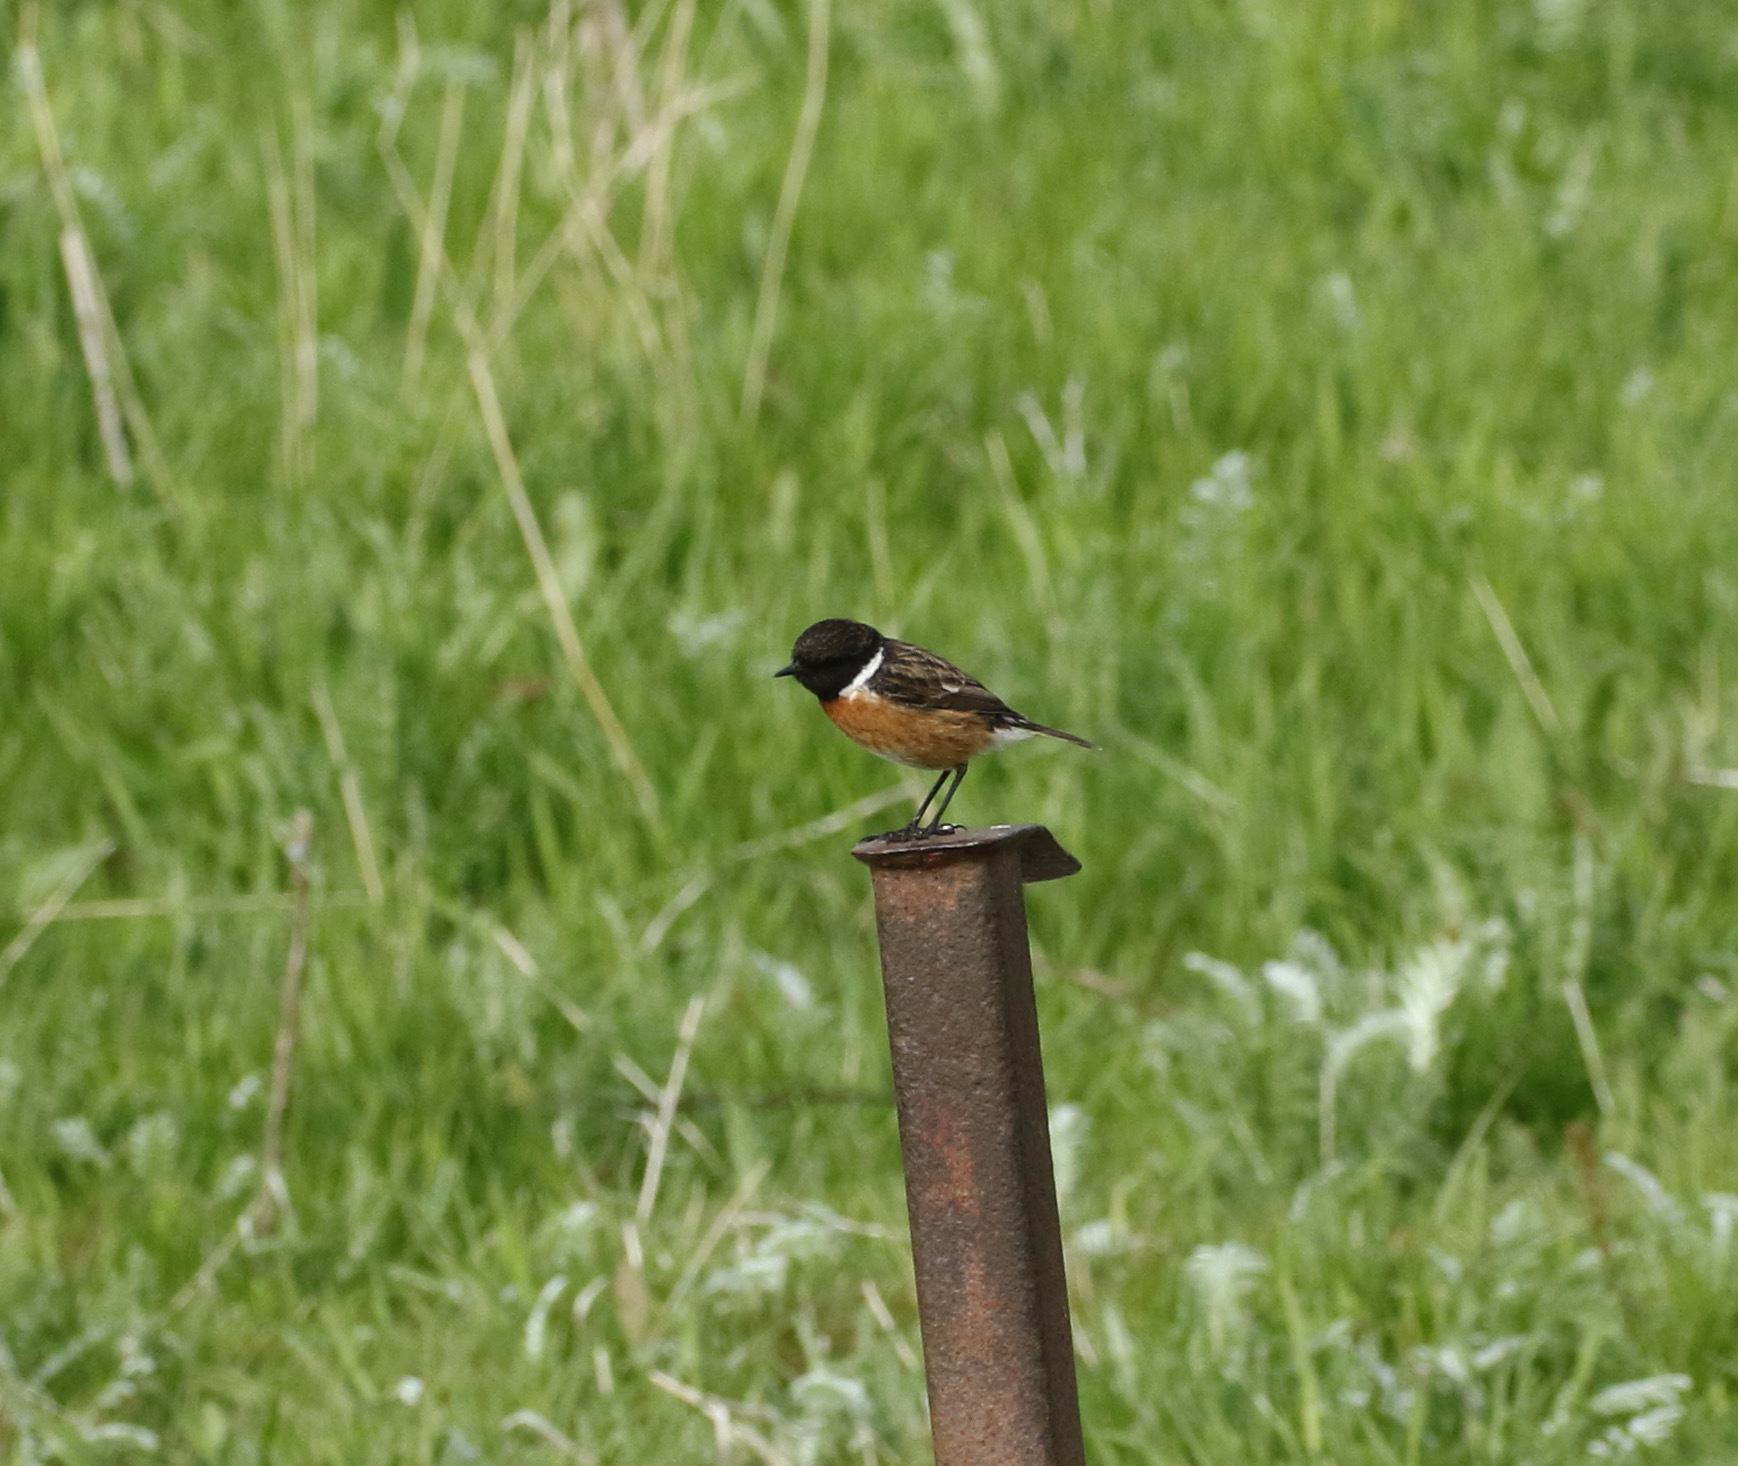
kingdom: Animalia
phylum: Chordata
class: Aves
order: Passeriformes
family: Muscicapidae
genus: Saxicola
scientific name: Saxicola rubicola
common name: European stonechat
